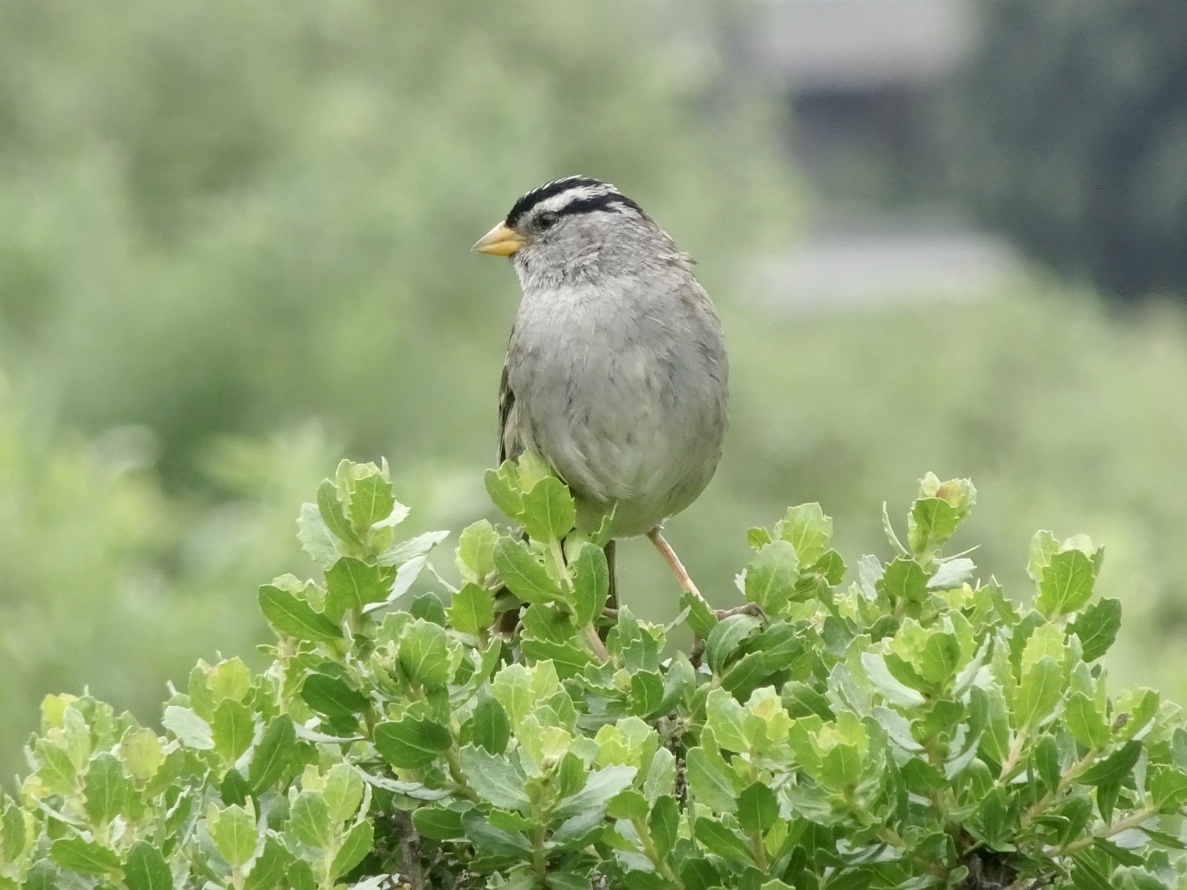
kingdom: Animalia
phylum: Chordata
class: Aves
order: Passeriformes
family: Passerellidae
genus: Zonotrichia
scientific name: Zonotrichia leucophrys
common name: White-crowned sparrow
